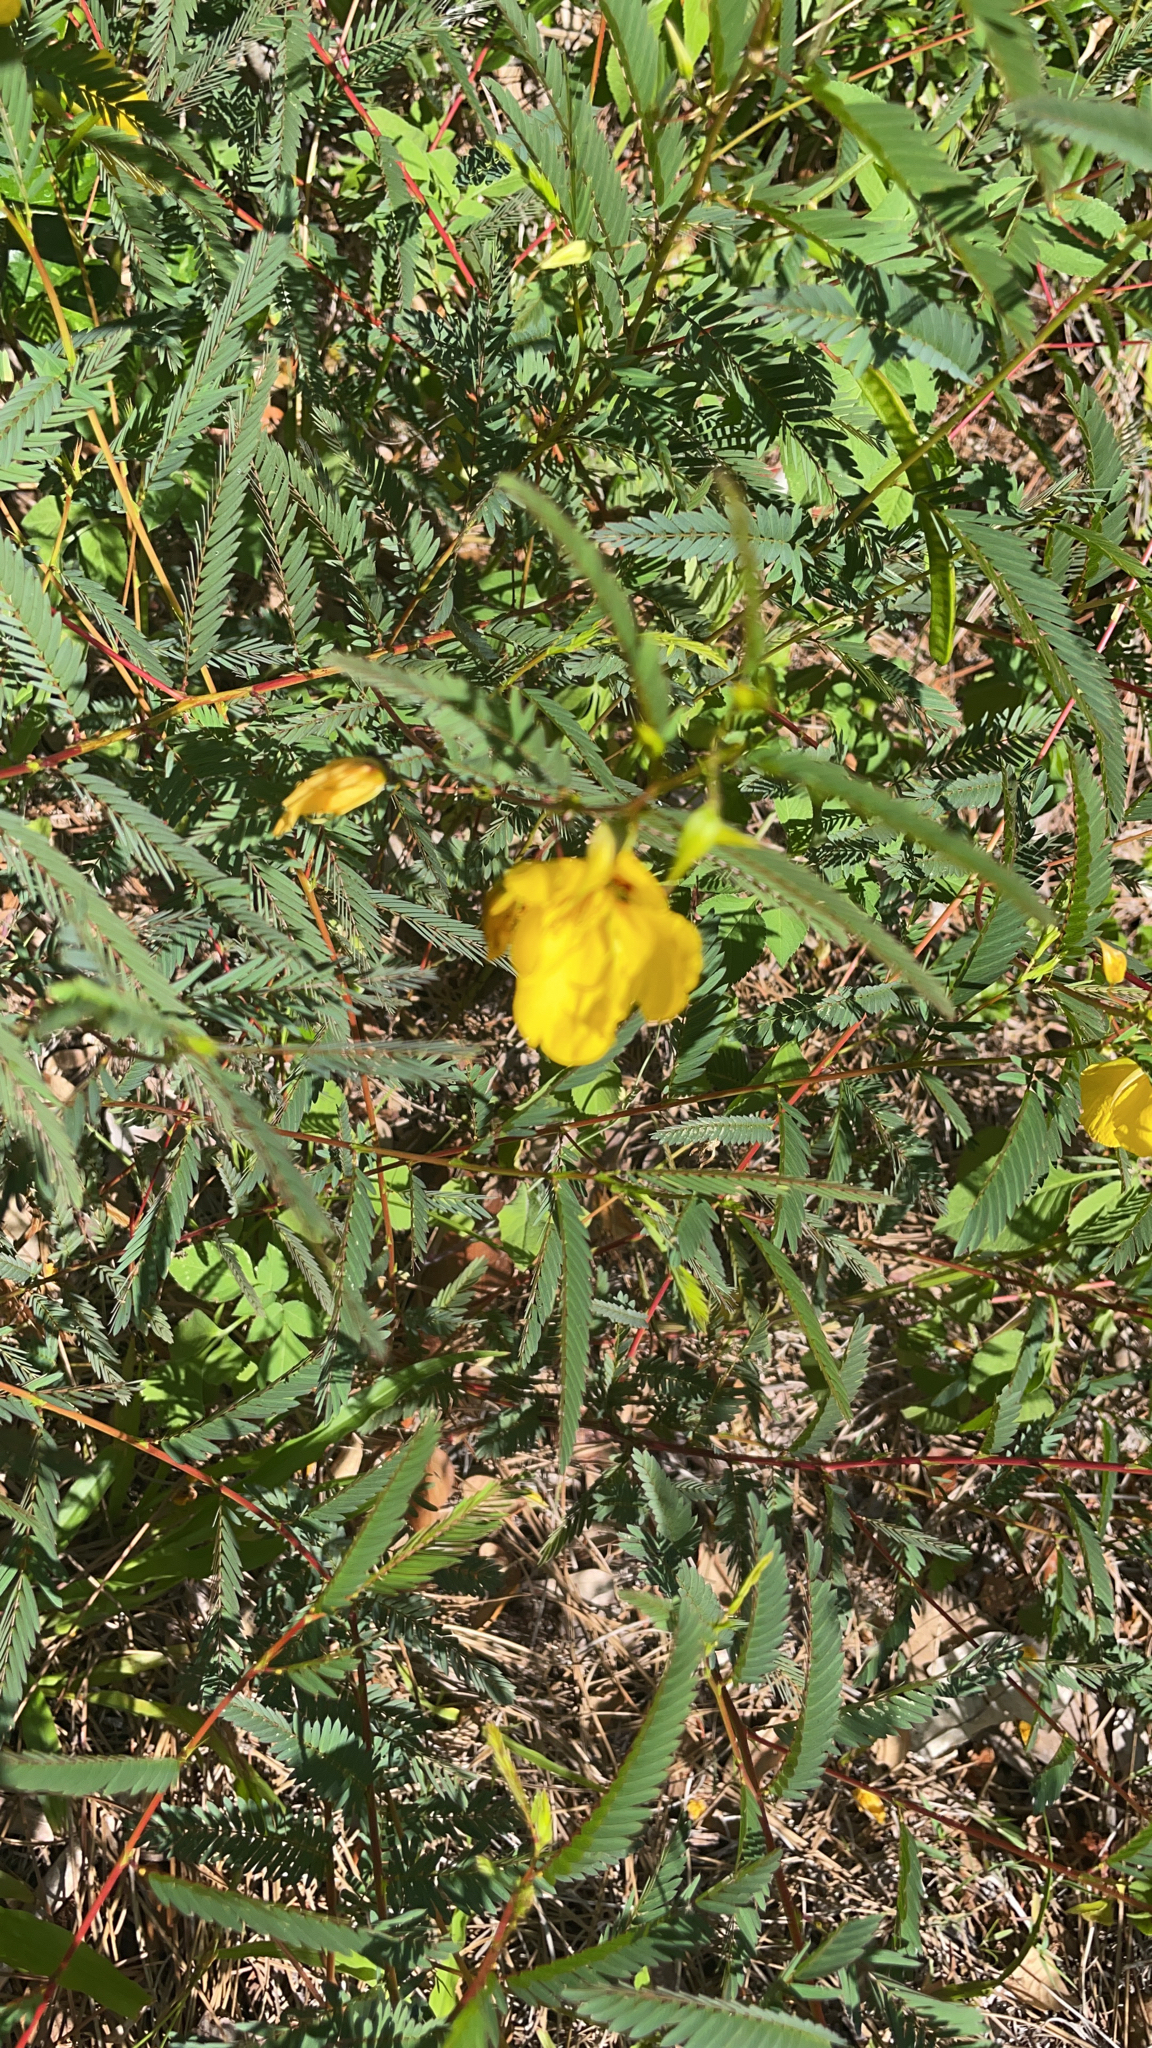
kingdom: Plantae
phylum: Tracheophyta
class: Magnoliopsida
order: Fabales
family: Fabaceae
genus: Chamaecrista
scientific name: Chamaecrista fasciculata
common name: Golden cassia
